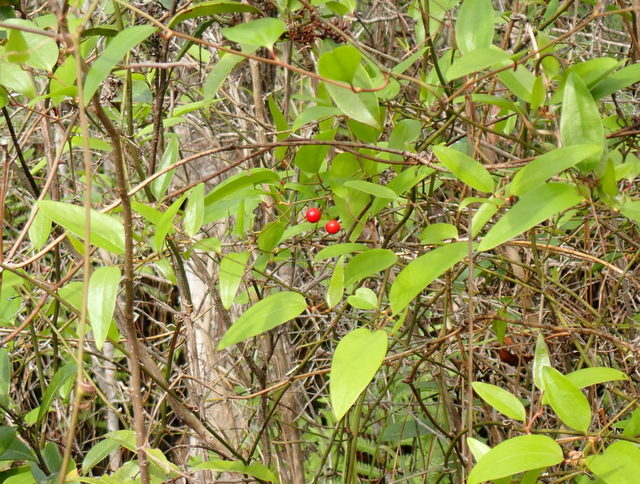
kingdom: Plantae
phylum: Tracheophyta
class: Liliopsida
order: Liliales
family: Smilacaceae
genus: Smilax
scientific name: Smilax walteri
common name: Coral greenbrier
